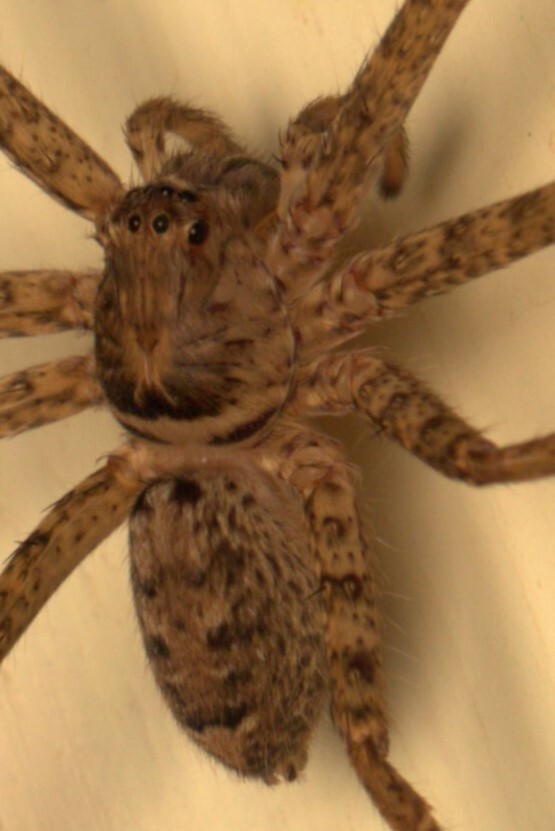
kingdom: Animalia
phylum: Arthropoda
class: Arachnida
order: Araneae
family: Sparassidae
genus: Heteropoda
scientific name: Heteropoda jugulans
